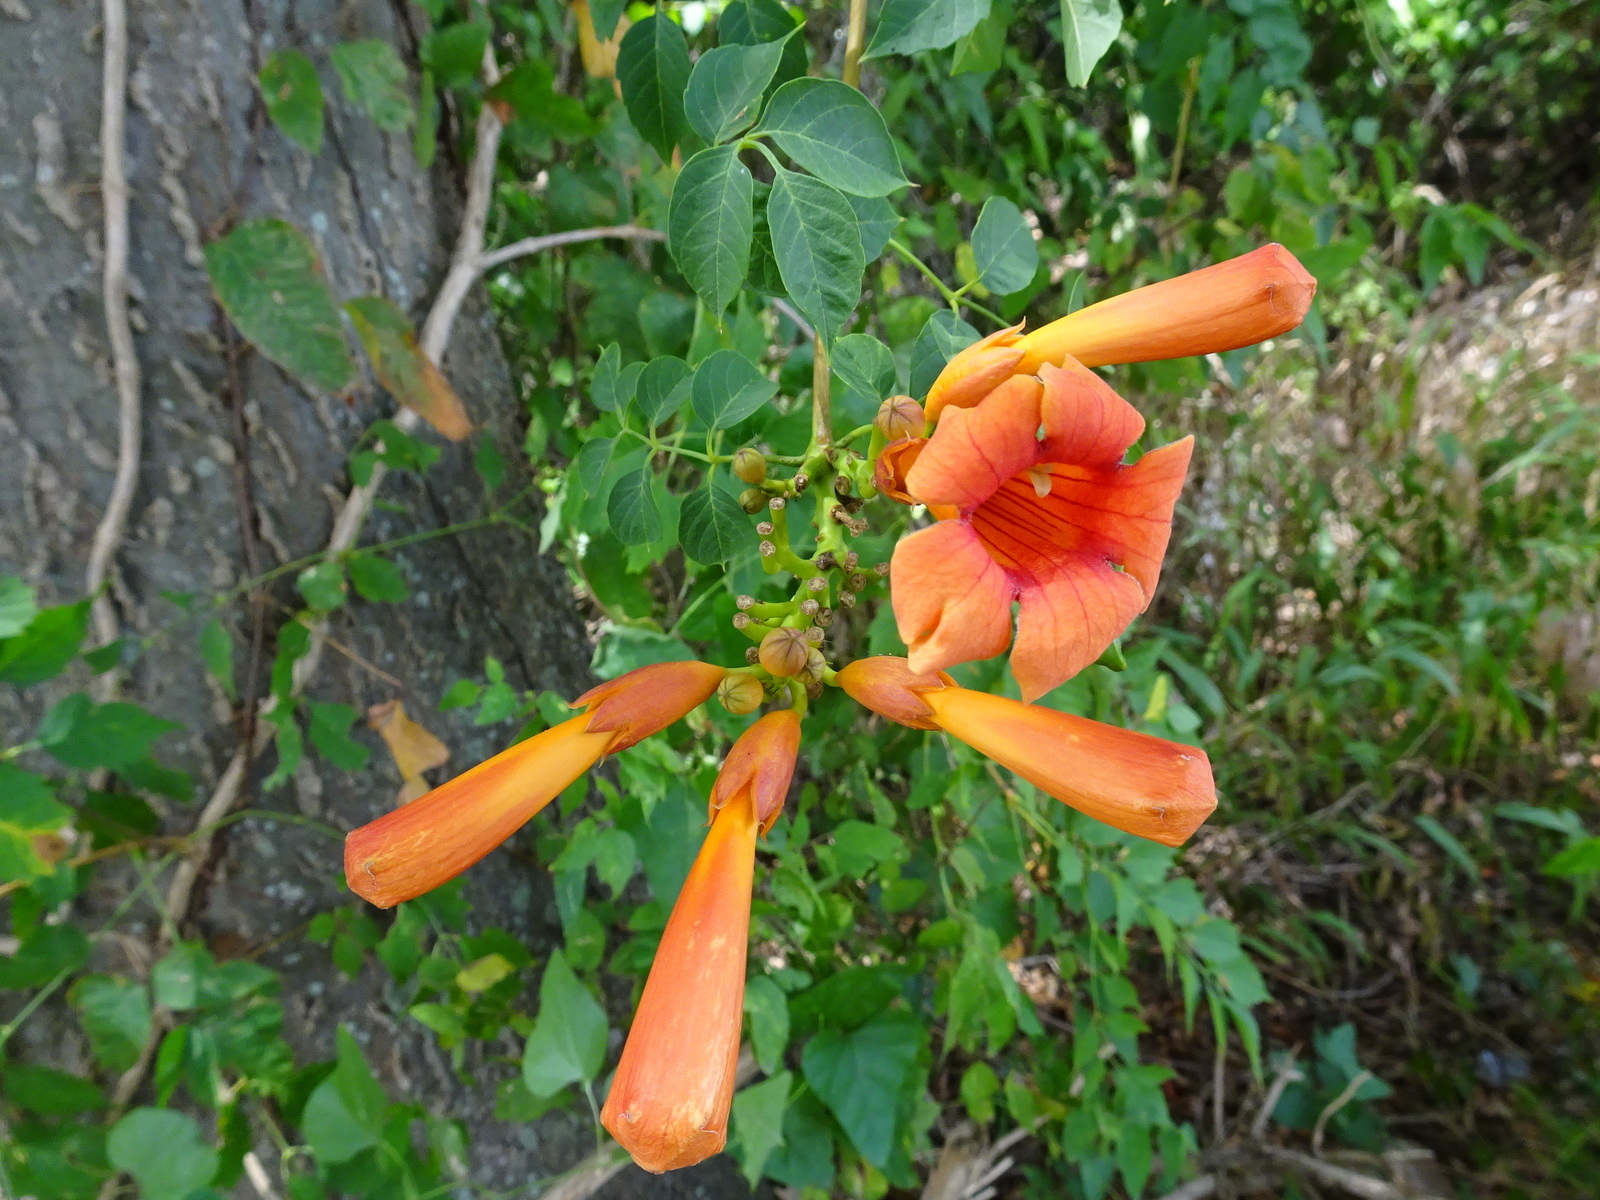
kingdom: Plantae
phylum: Tracheophyta
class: Magnoliopsida
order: Lamiales
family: Bignoniaceae
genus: Campsis
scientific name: Campsis radicans
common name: Trumpet-creeper
